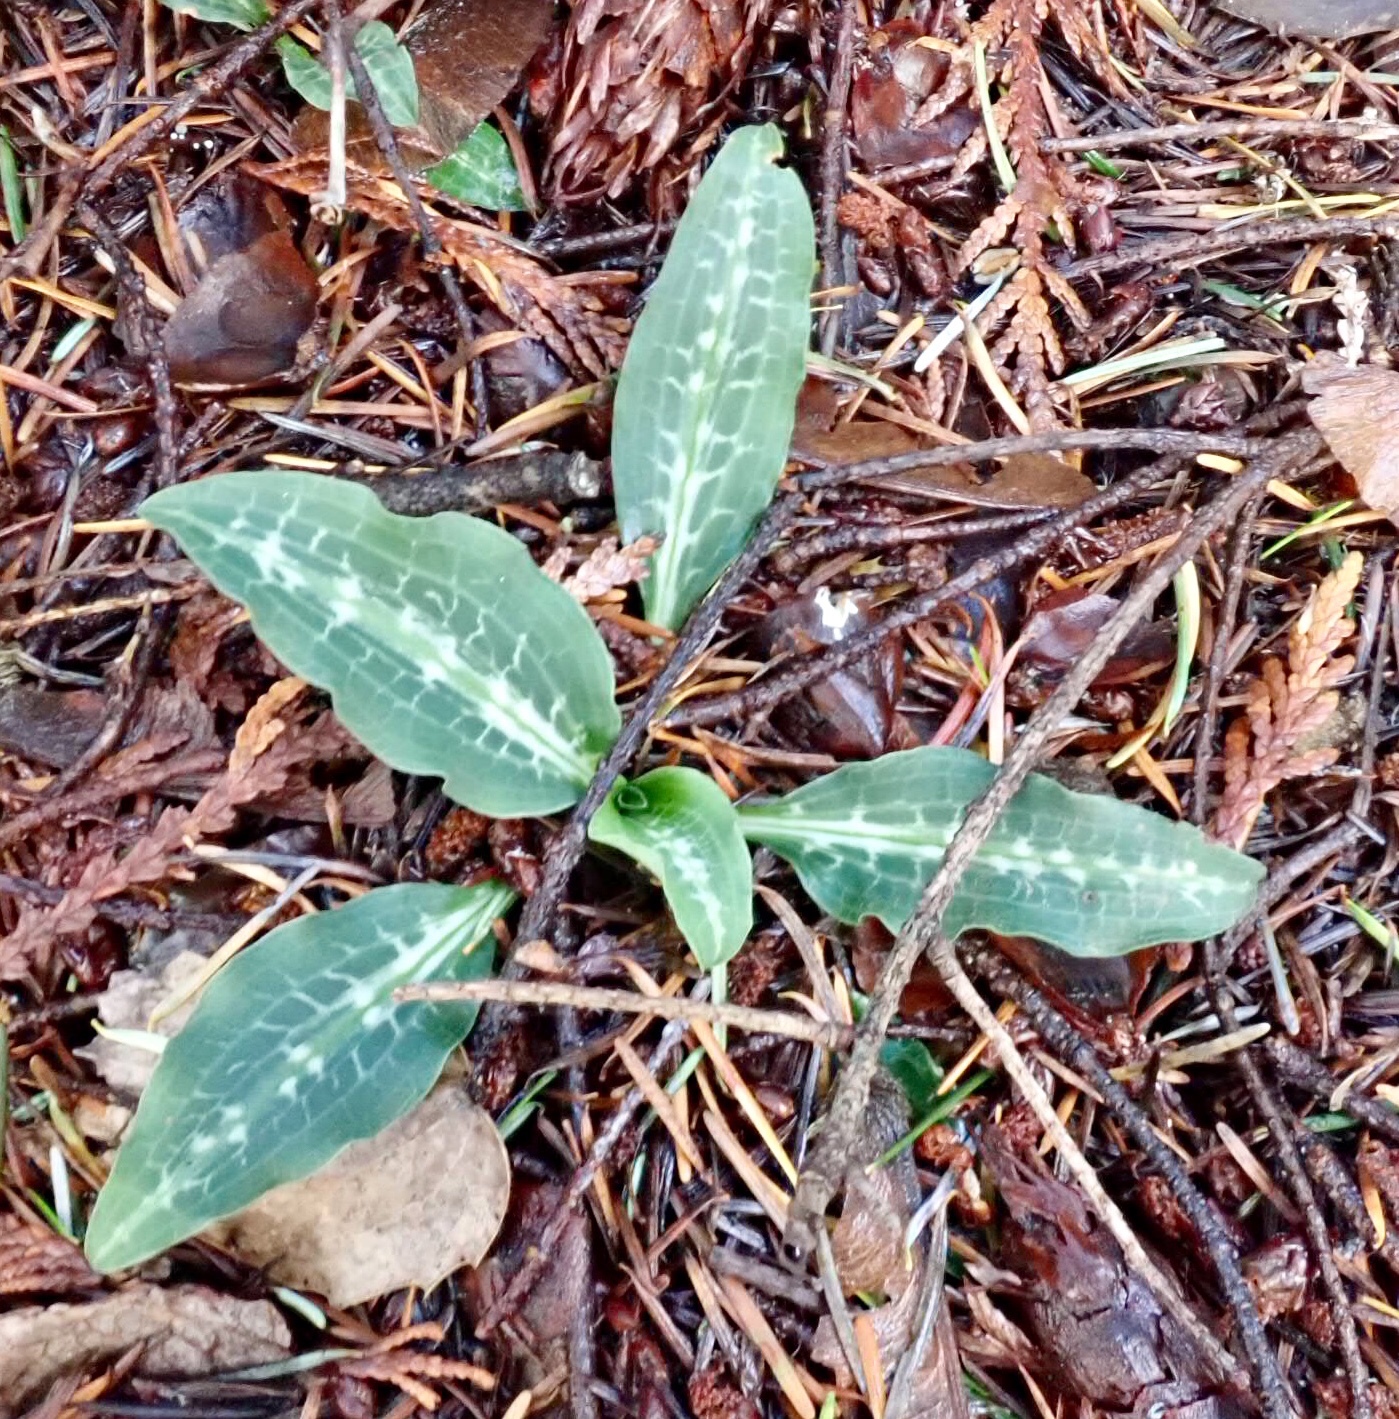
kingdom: Plantae
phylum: Tracheophyta
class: Liliopsida
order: Asparagales
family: Orchidaceae
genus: Goodyera
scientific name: Goodyera oblongifolia
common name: Giant rattlesnake-plantain
